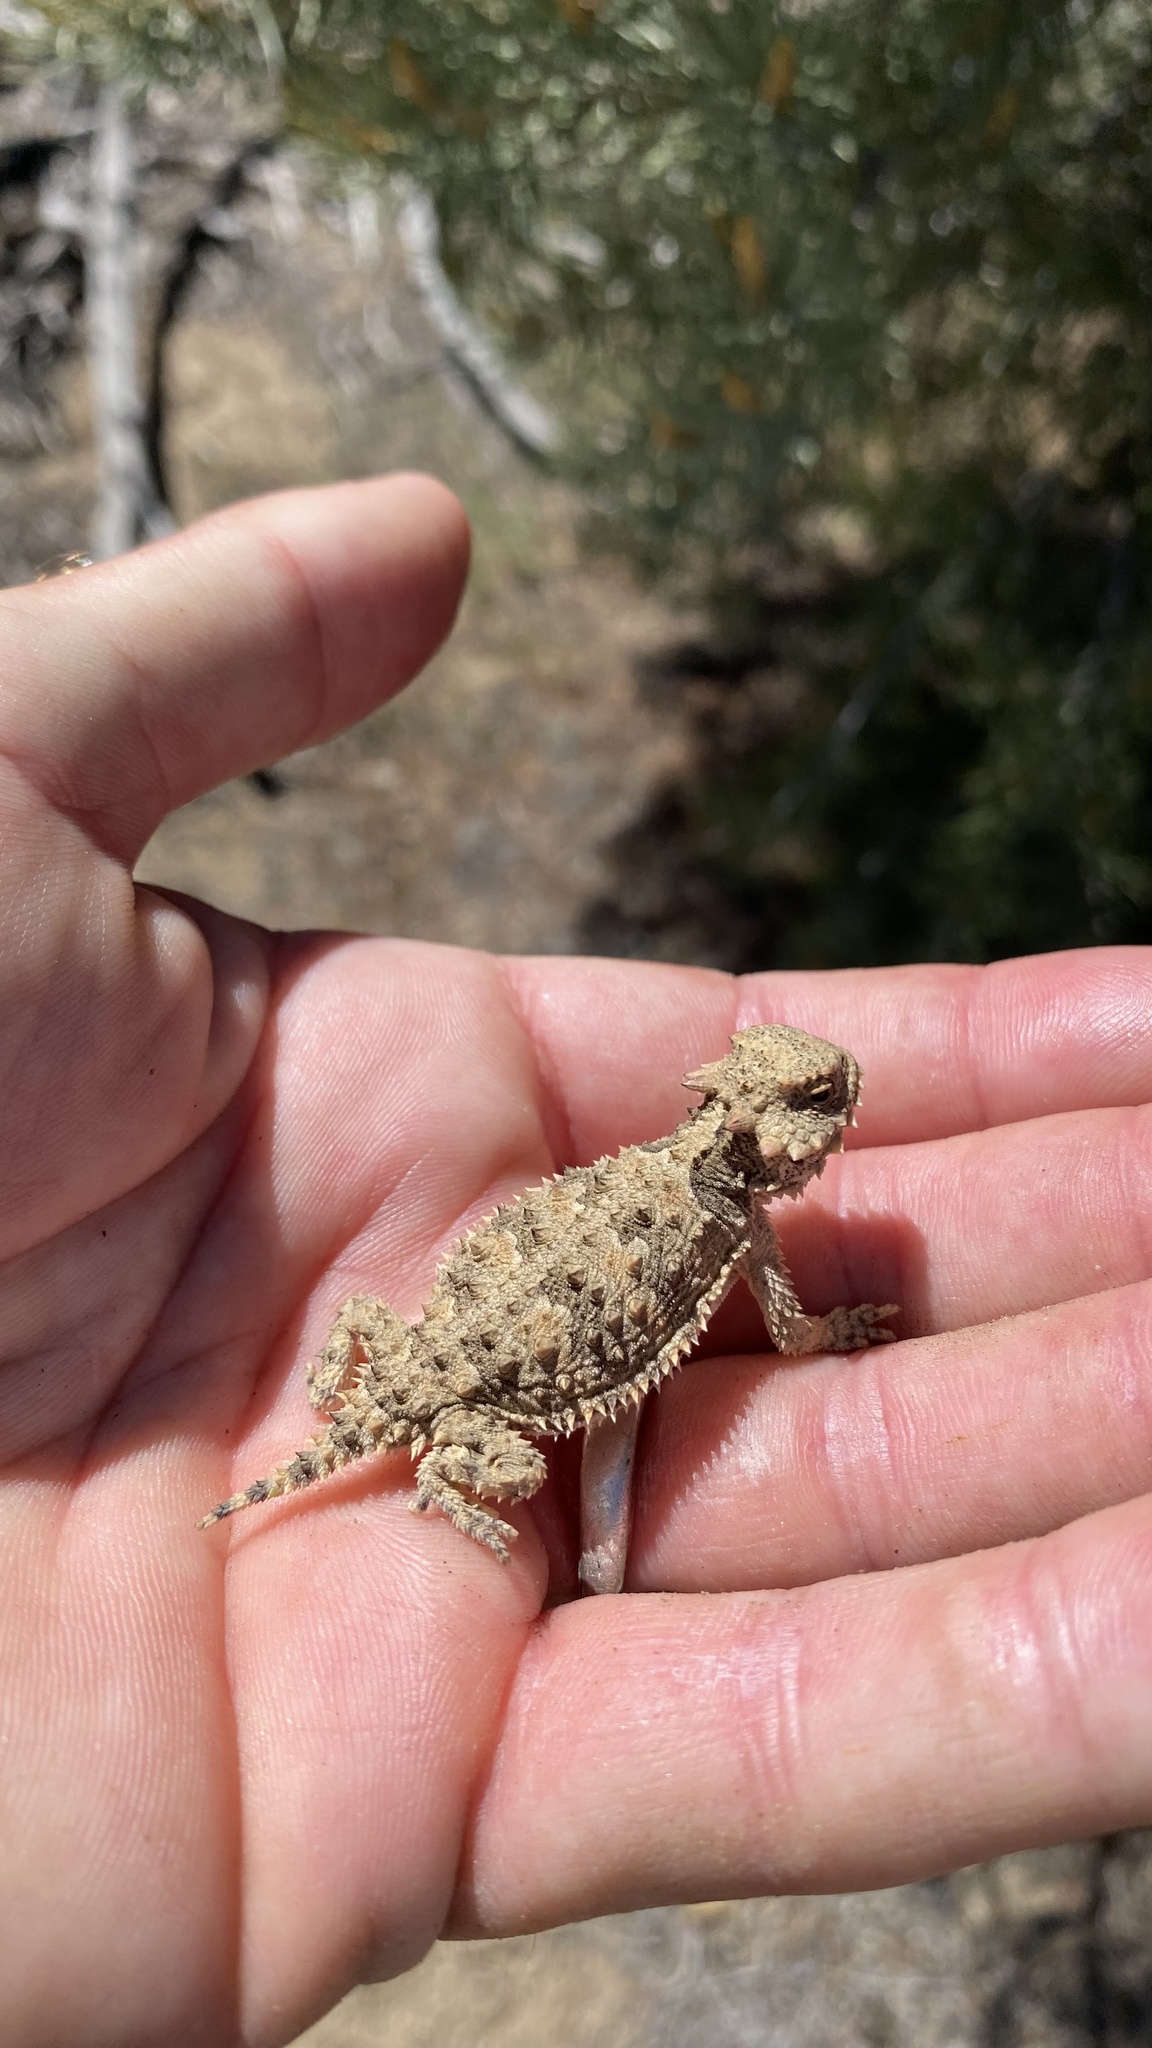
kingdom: Animalia
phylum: Chordata
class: Squamata
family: Phrynosomatidae
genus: Phrynosoma
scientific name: Phrynosoma blainvillii
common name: San diego horned lizard
